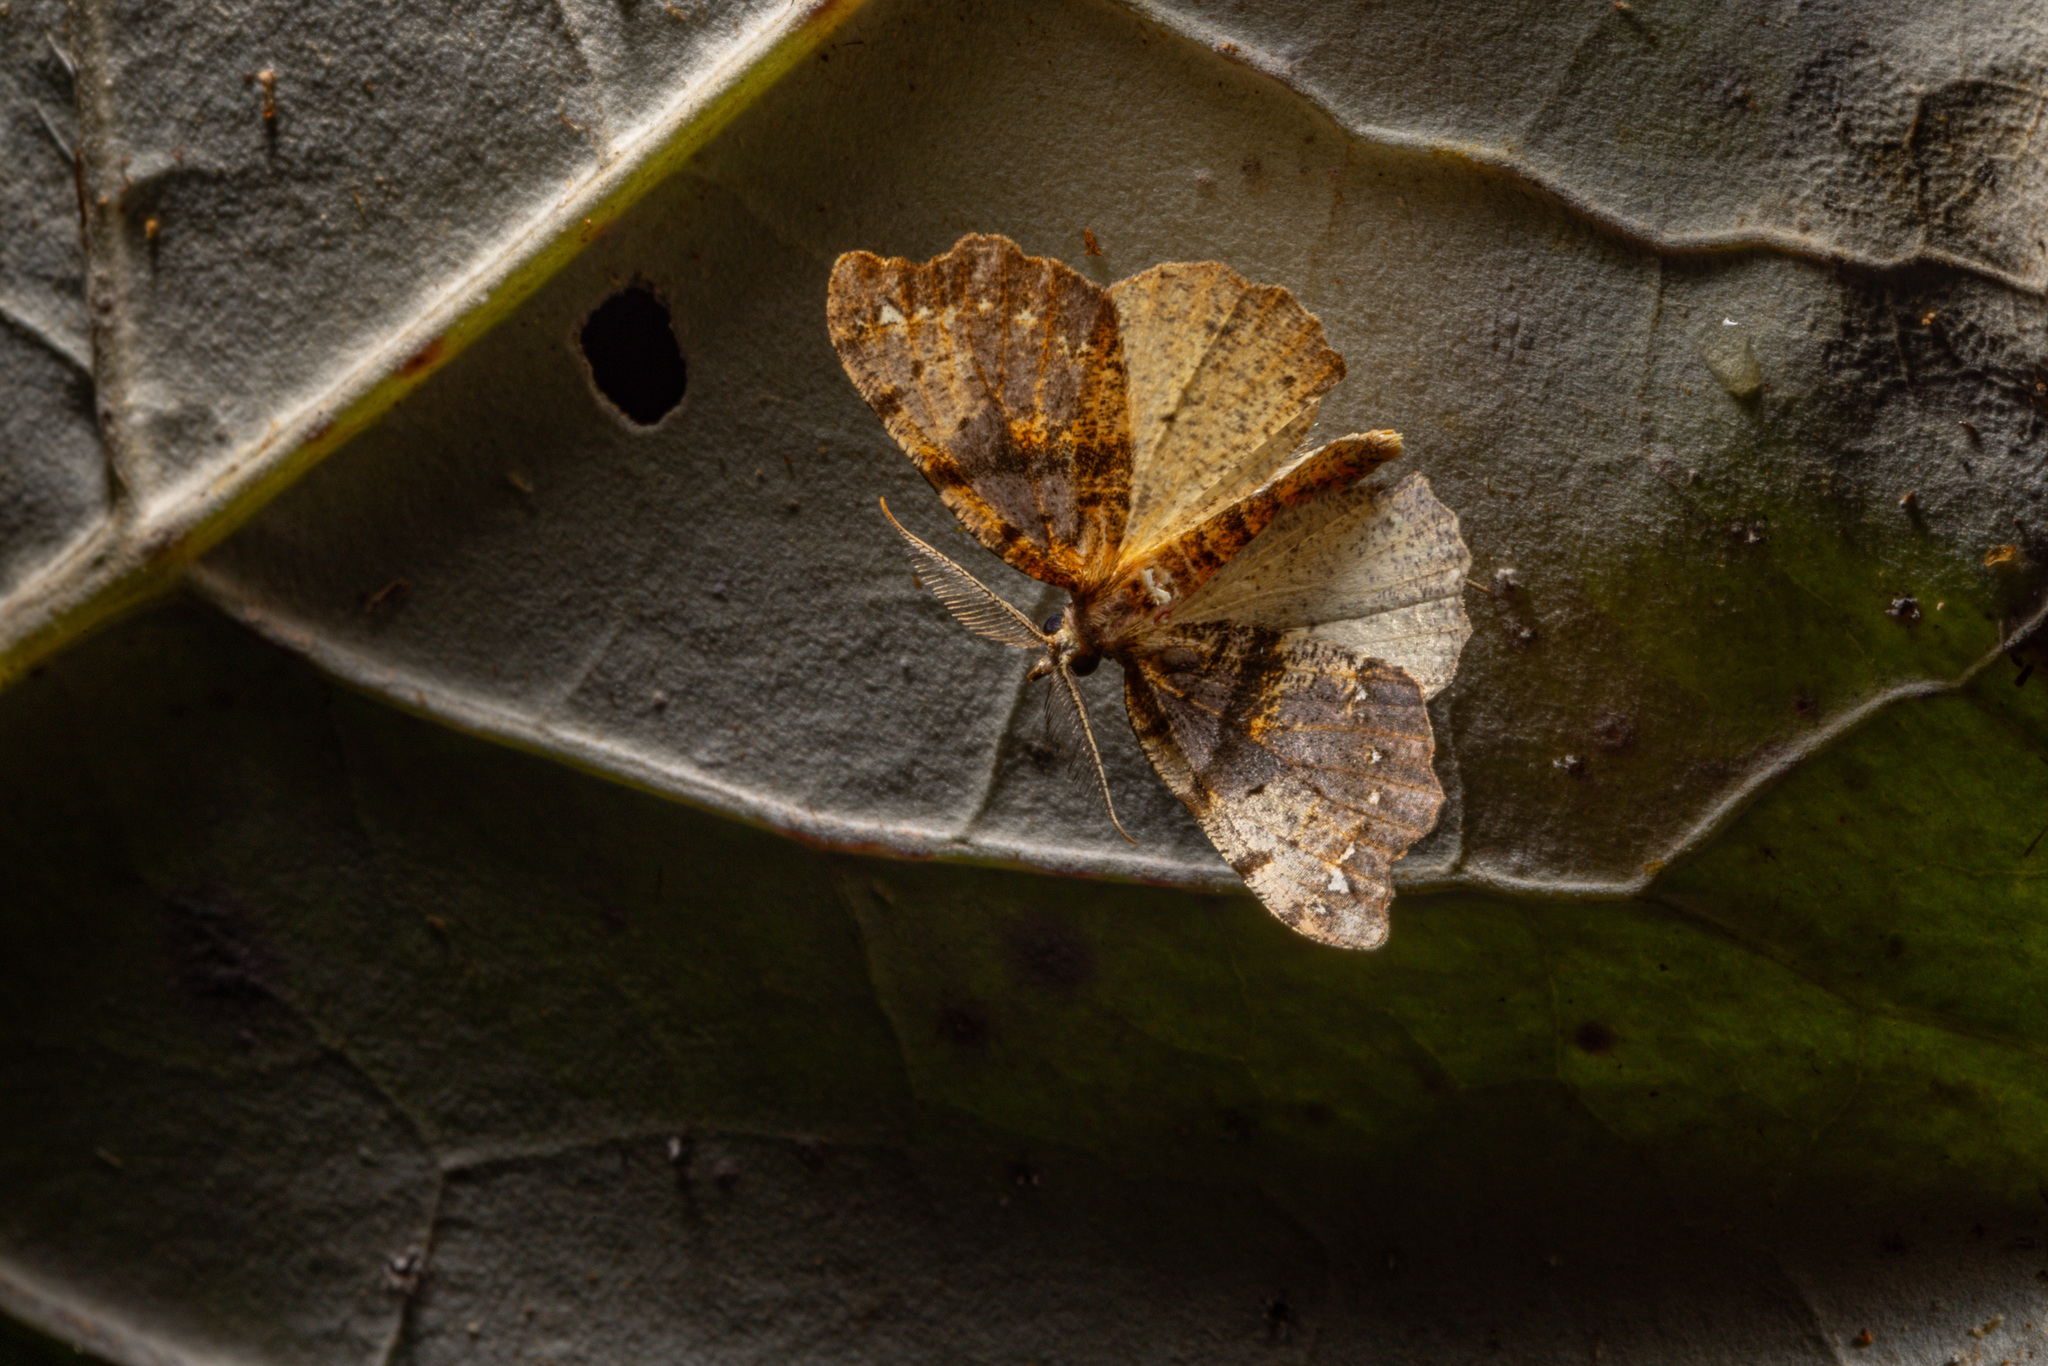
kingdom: Animalia
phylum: Arthropoda
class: Insecta
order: Lepidoptera
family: Geometridae
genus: Chalastra
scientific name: Chalastra pellurgata
